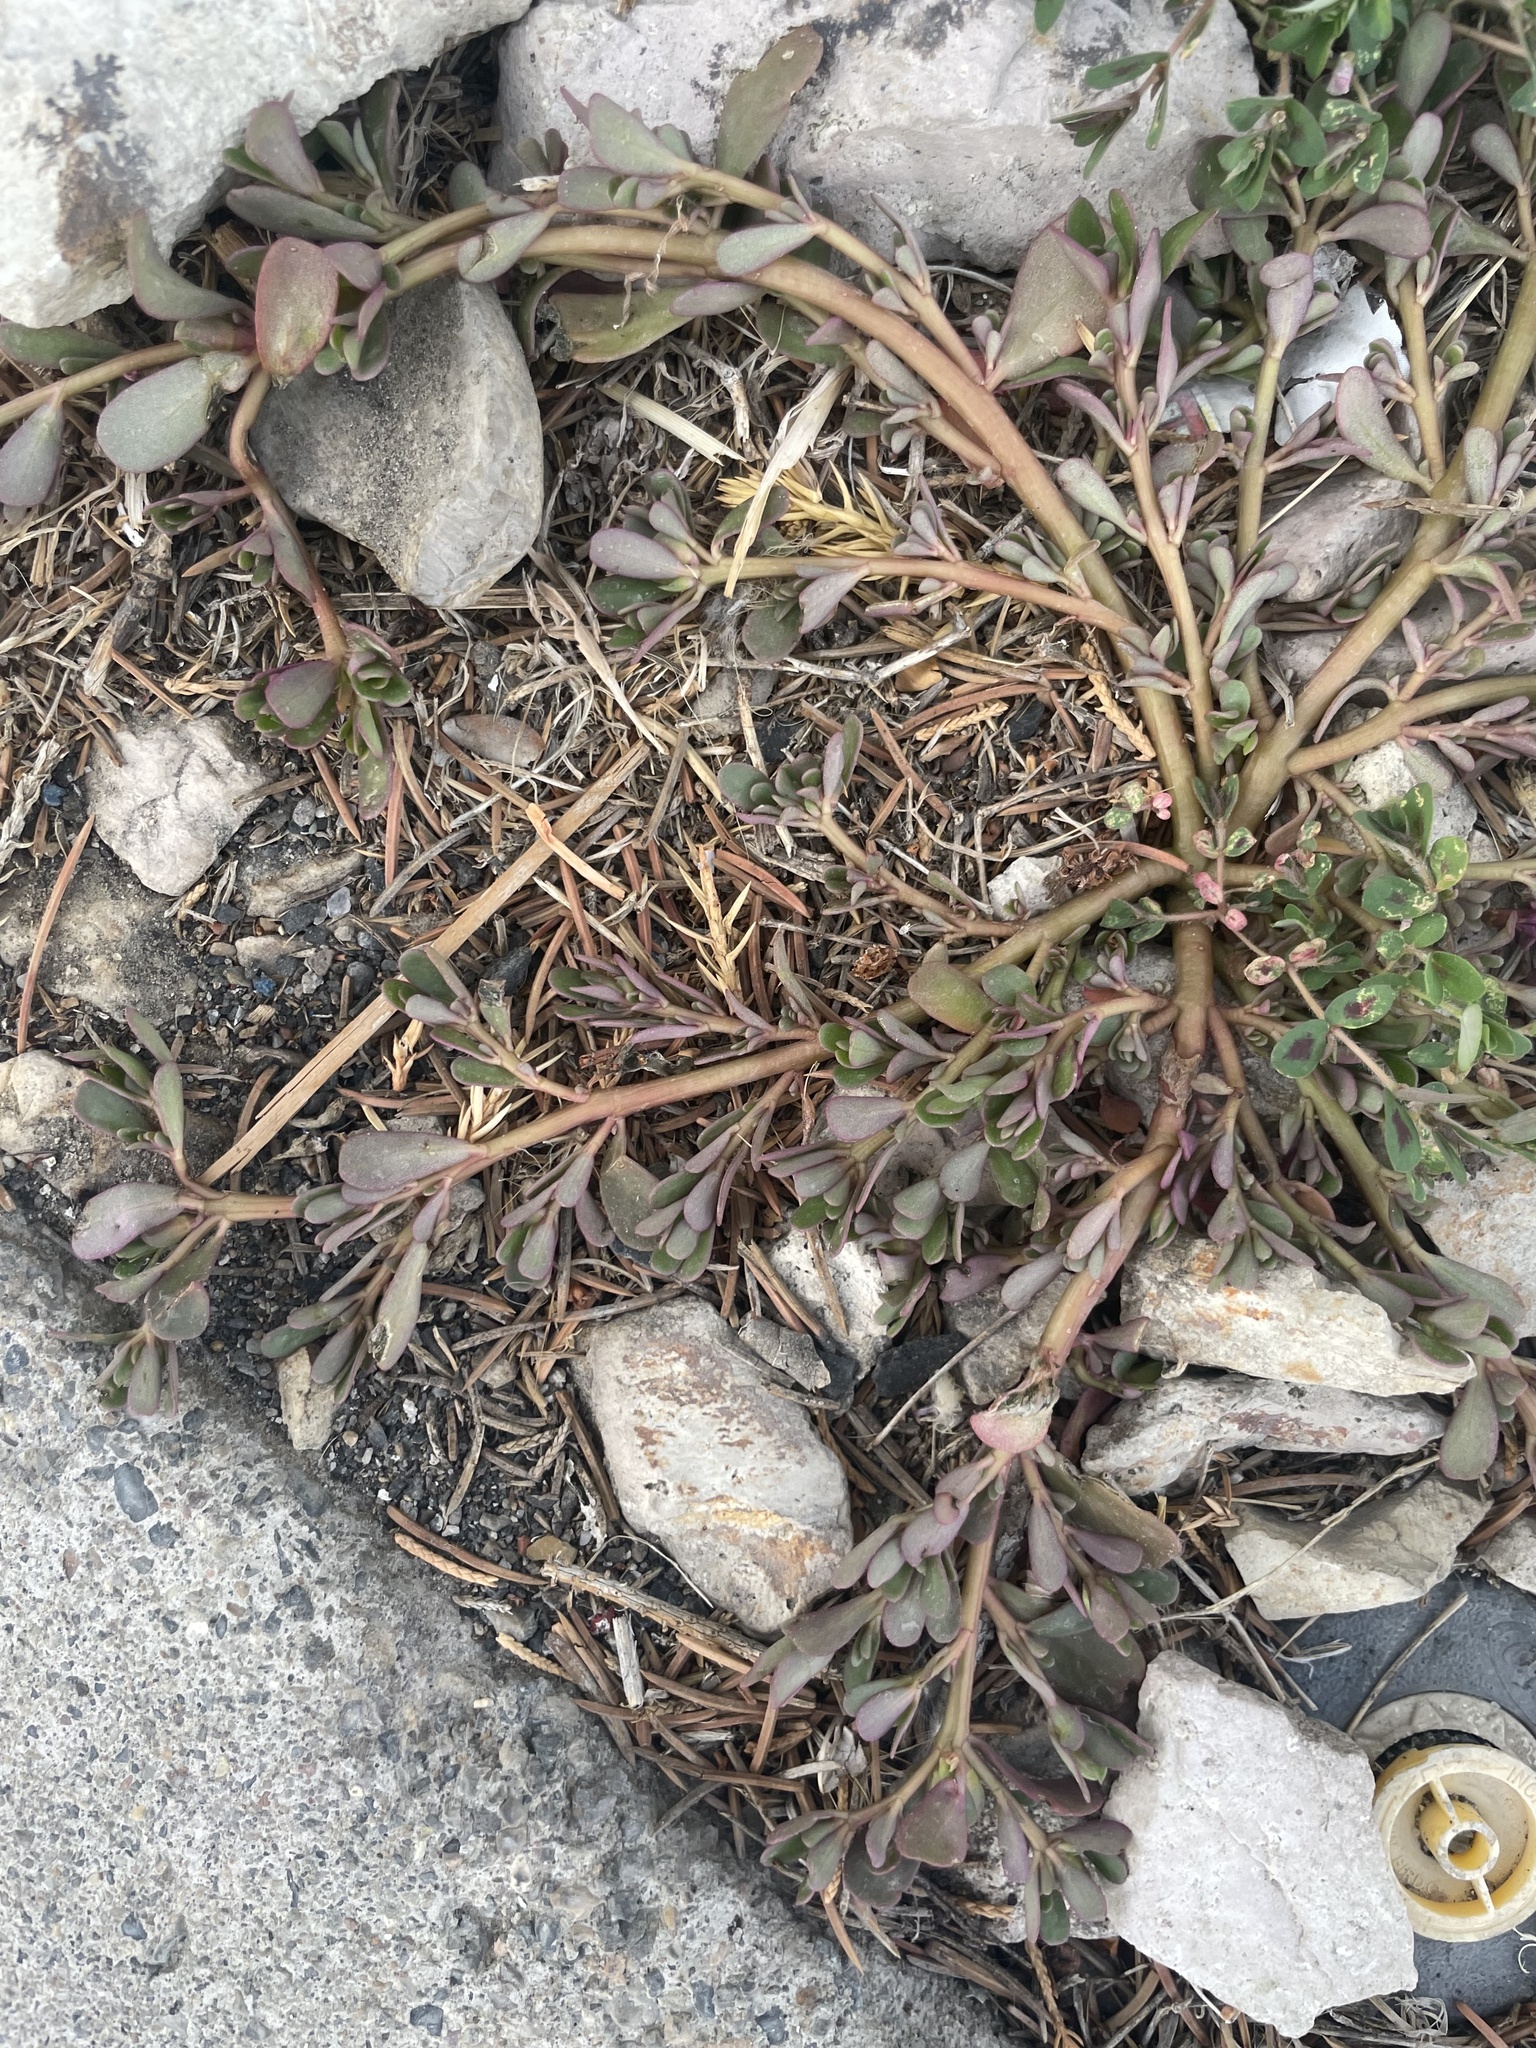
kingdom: Plantae
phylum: Tracheophyta
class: Magnoliopsida
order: Caryophyllales
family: Portulacaceae
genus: Portulaca
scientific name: Portulaca oleracea
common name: Common purslane
